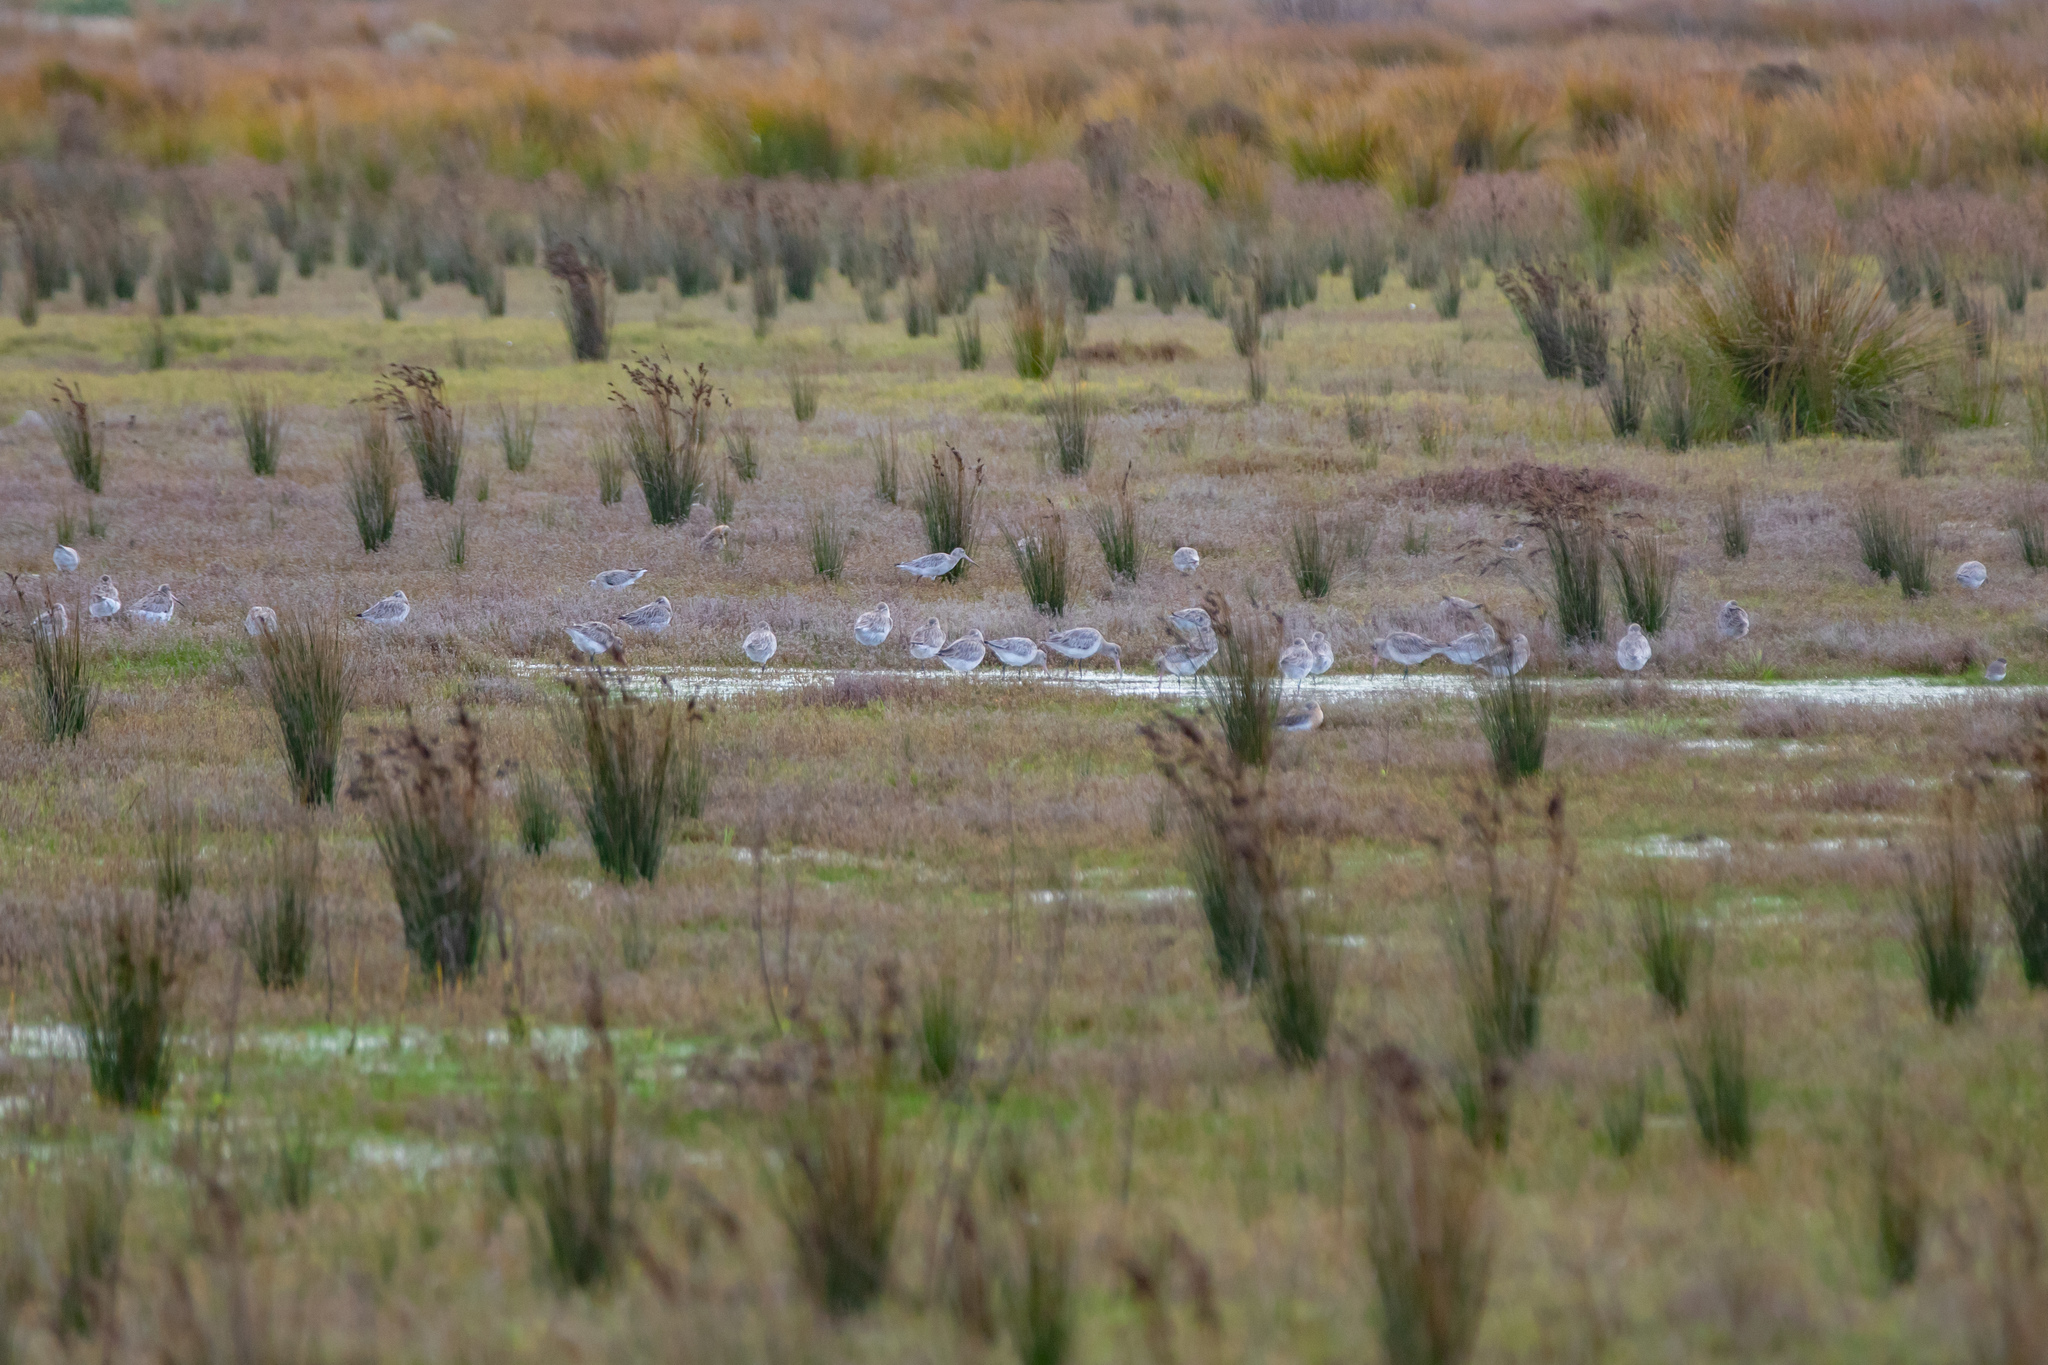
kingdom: Animalia
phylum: Chordata
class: Aves
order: Charadriiformes
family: Scolopacidae
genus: Limosa
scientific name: Limosa lapponica
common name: Bar-tailed godwit
